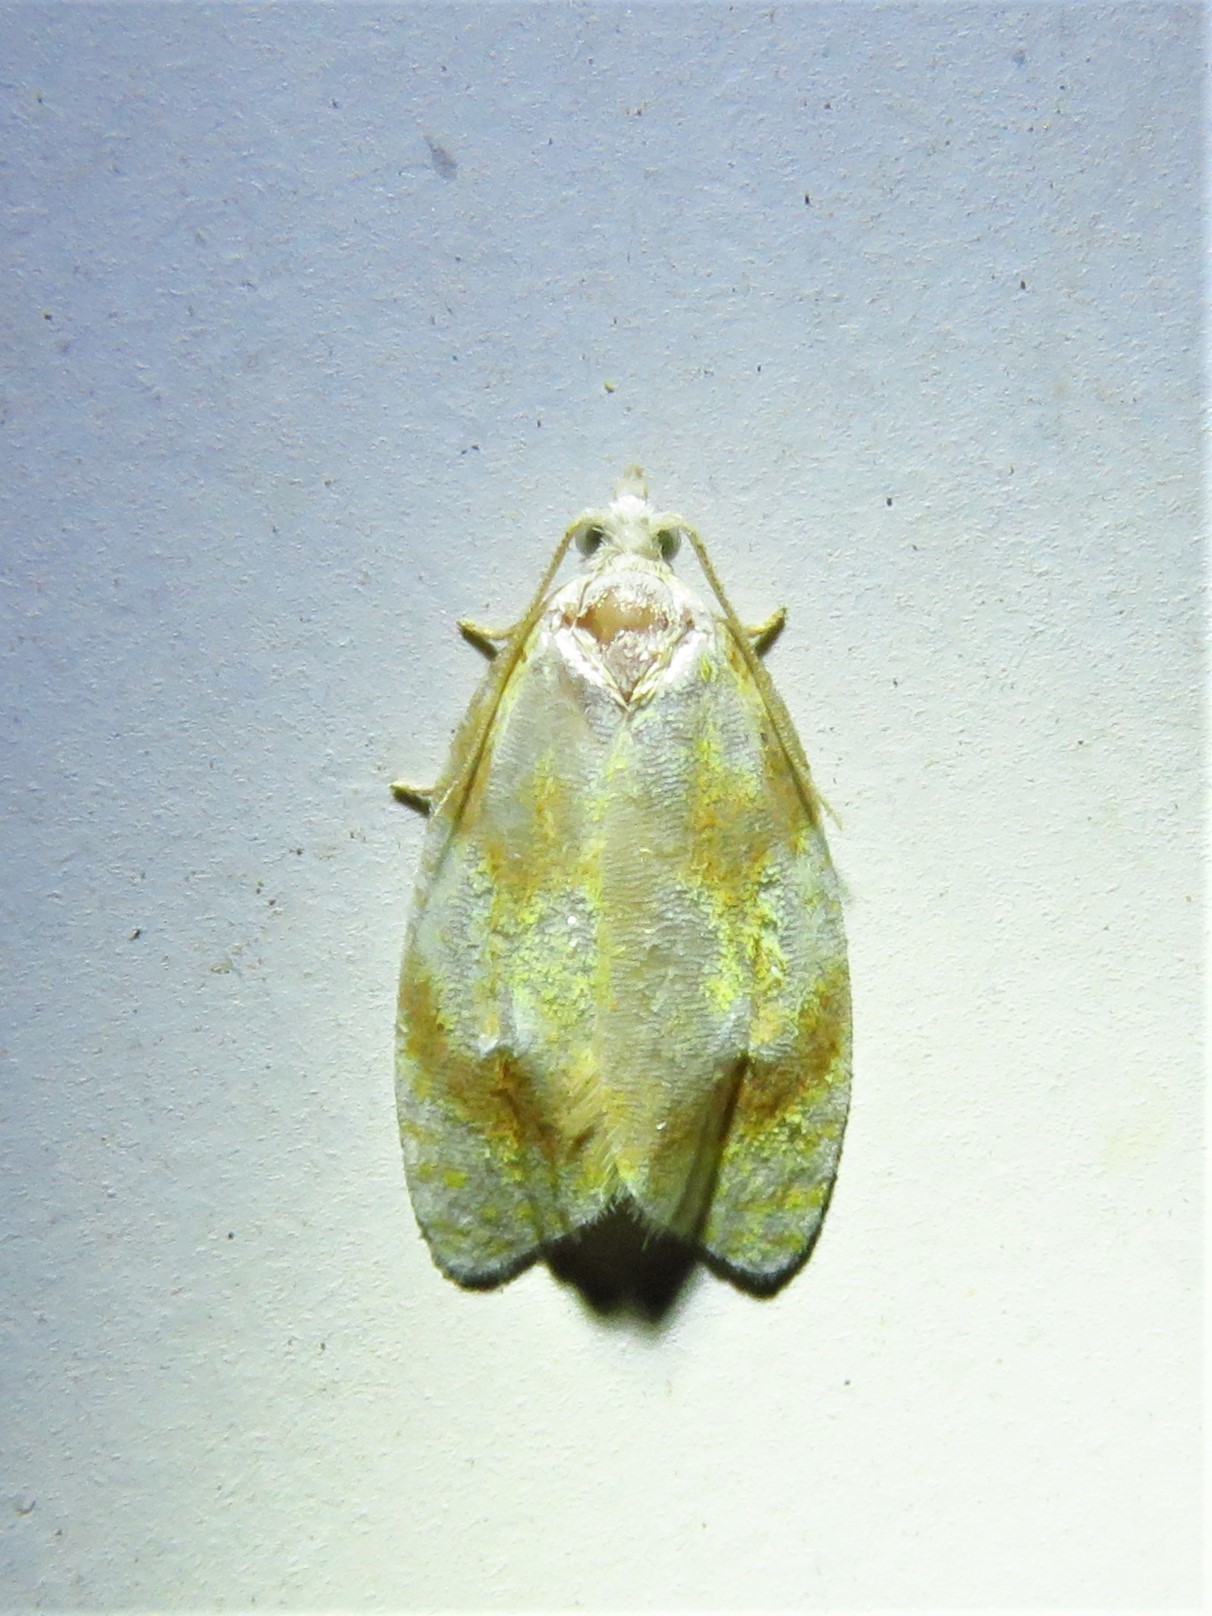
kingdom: Animalia
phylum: Arthropoda
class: Insecta
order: Lepidoptera
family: Tortricidae
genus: Acleris
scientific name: Acleris semipurpurana
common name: Oak leaftier moth
